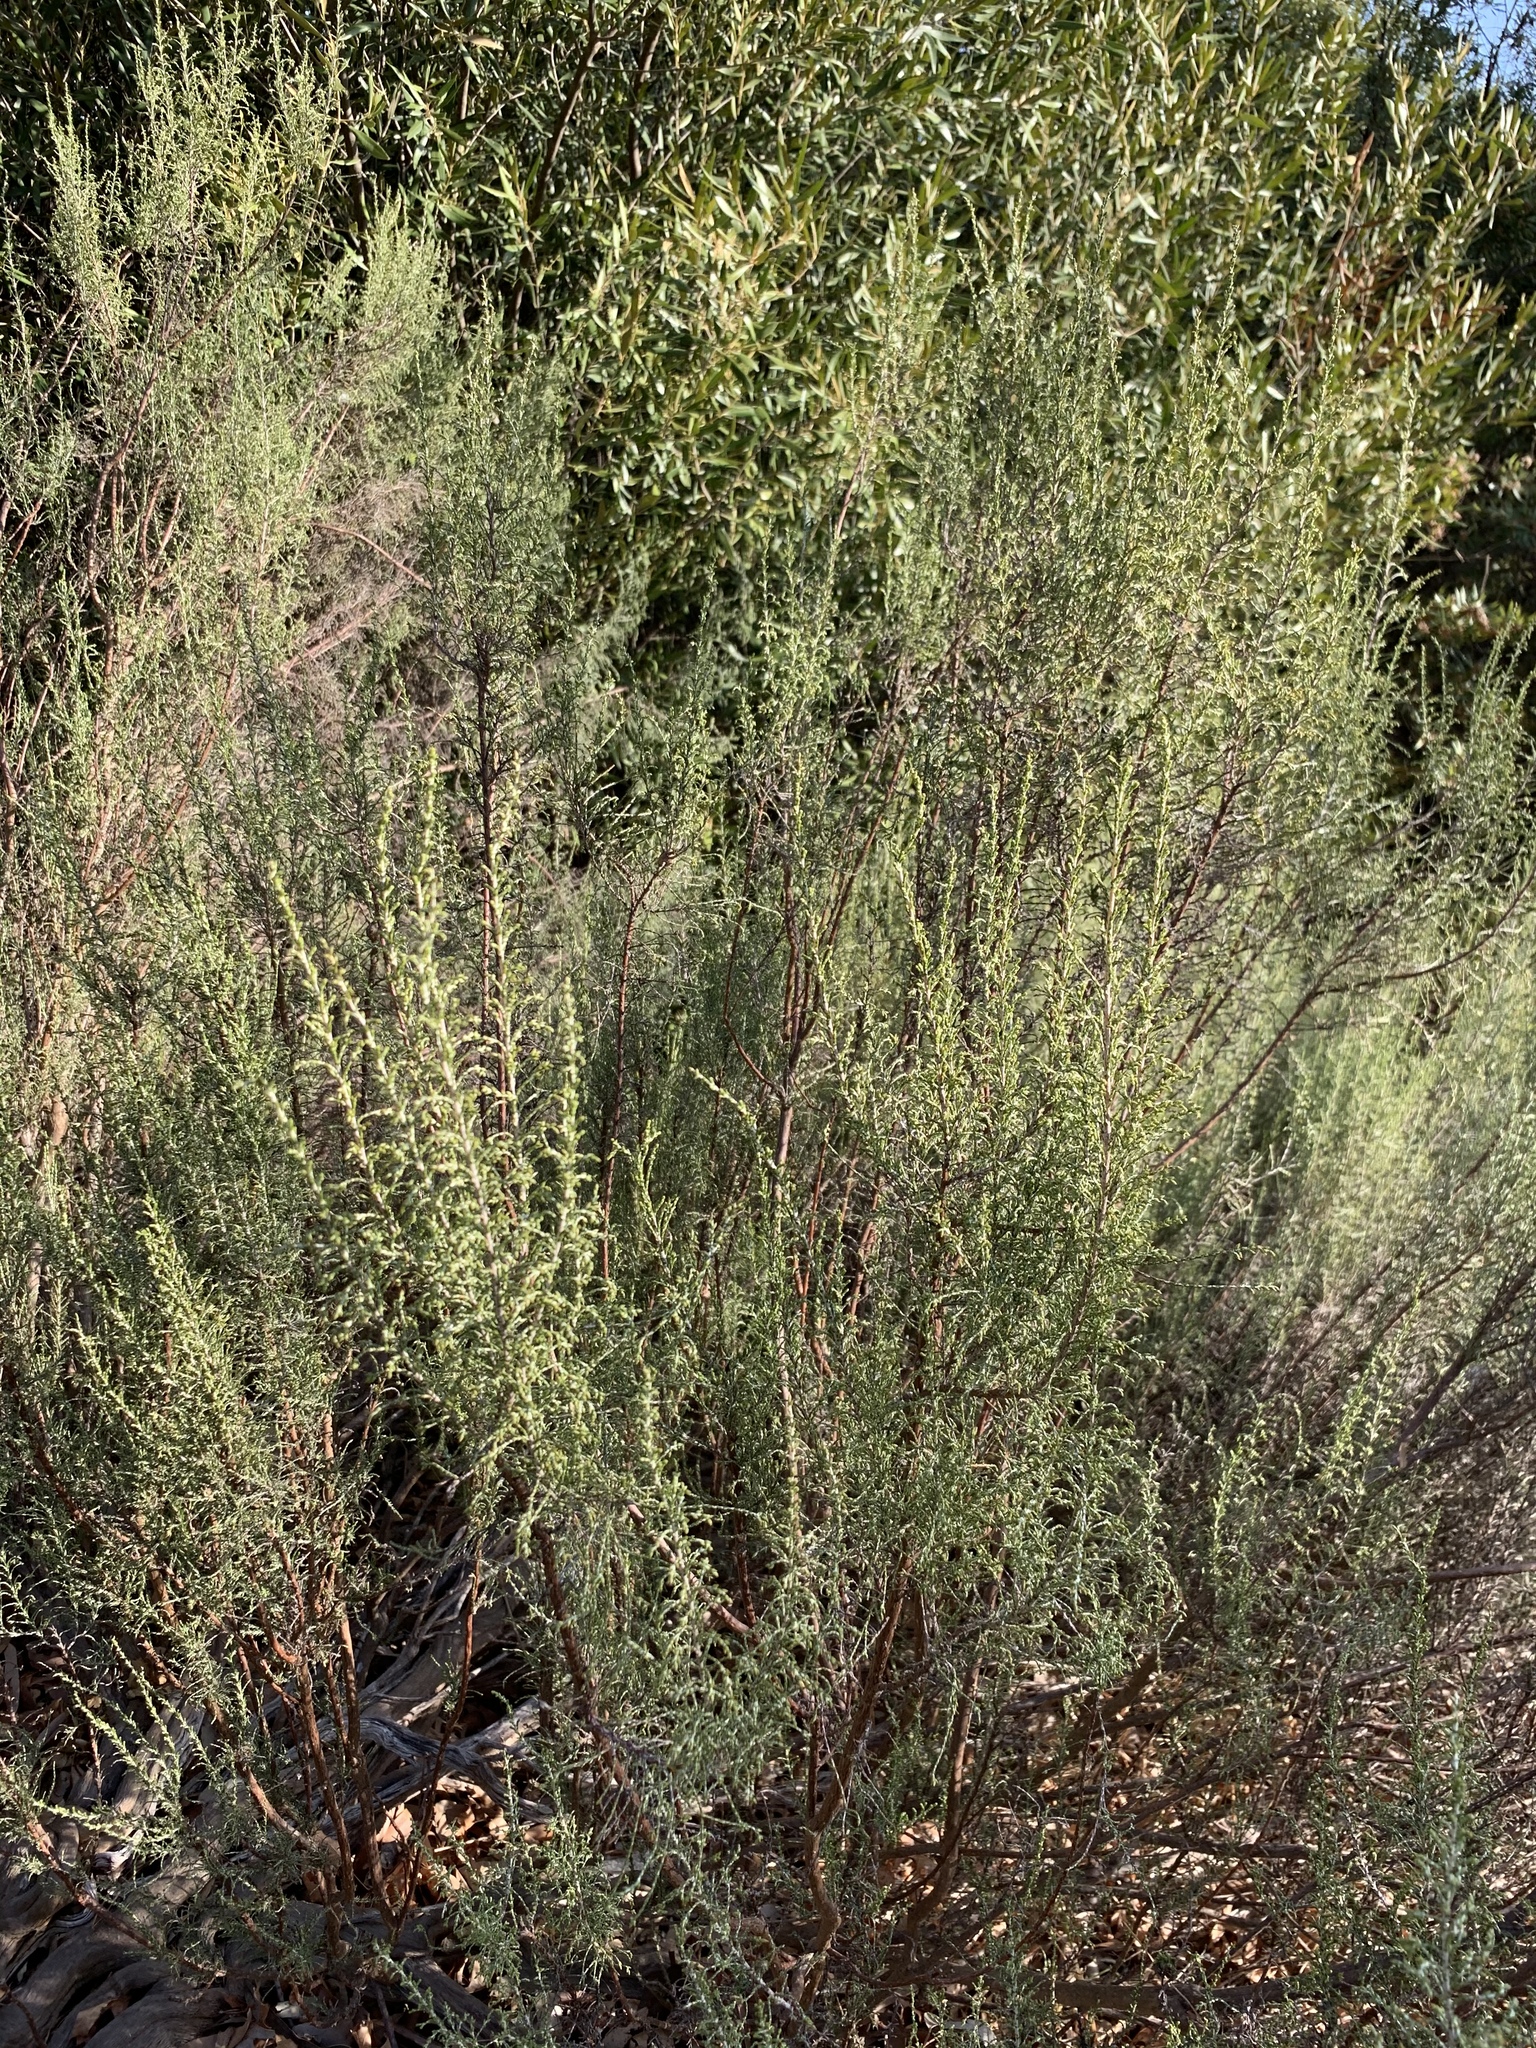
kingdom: Plantae
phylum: Tracheophyta
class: Magnoliopsida
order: Asterales
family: Asteraceae
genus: Dicerothamnus
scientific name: Dicerothamnus rhinocerotis
